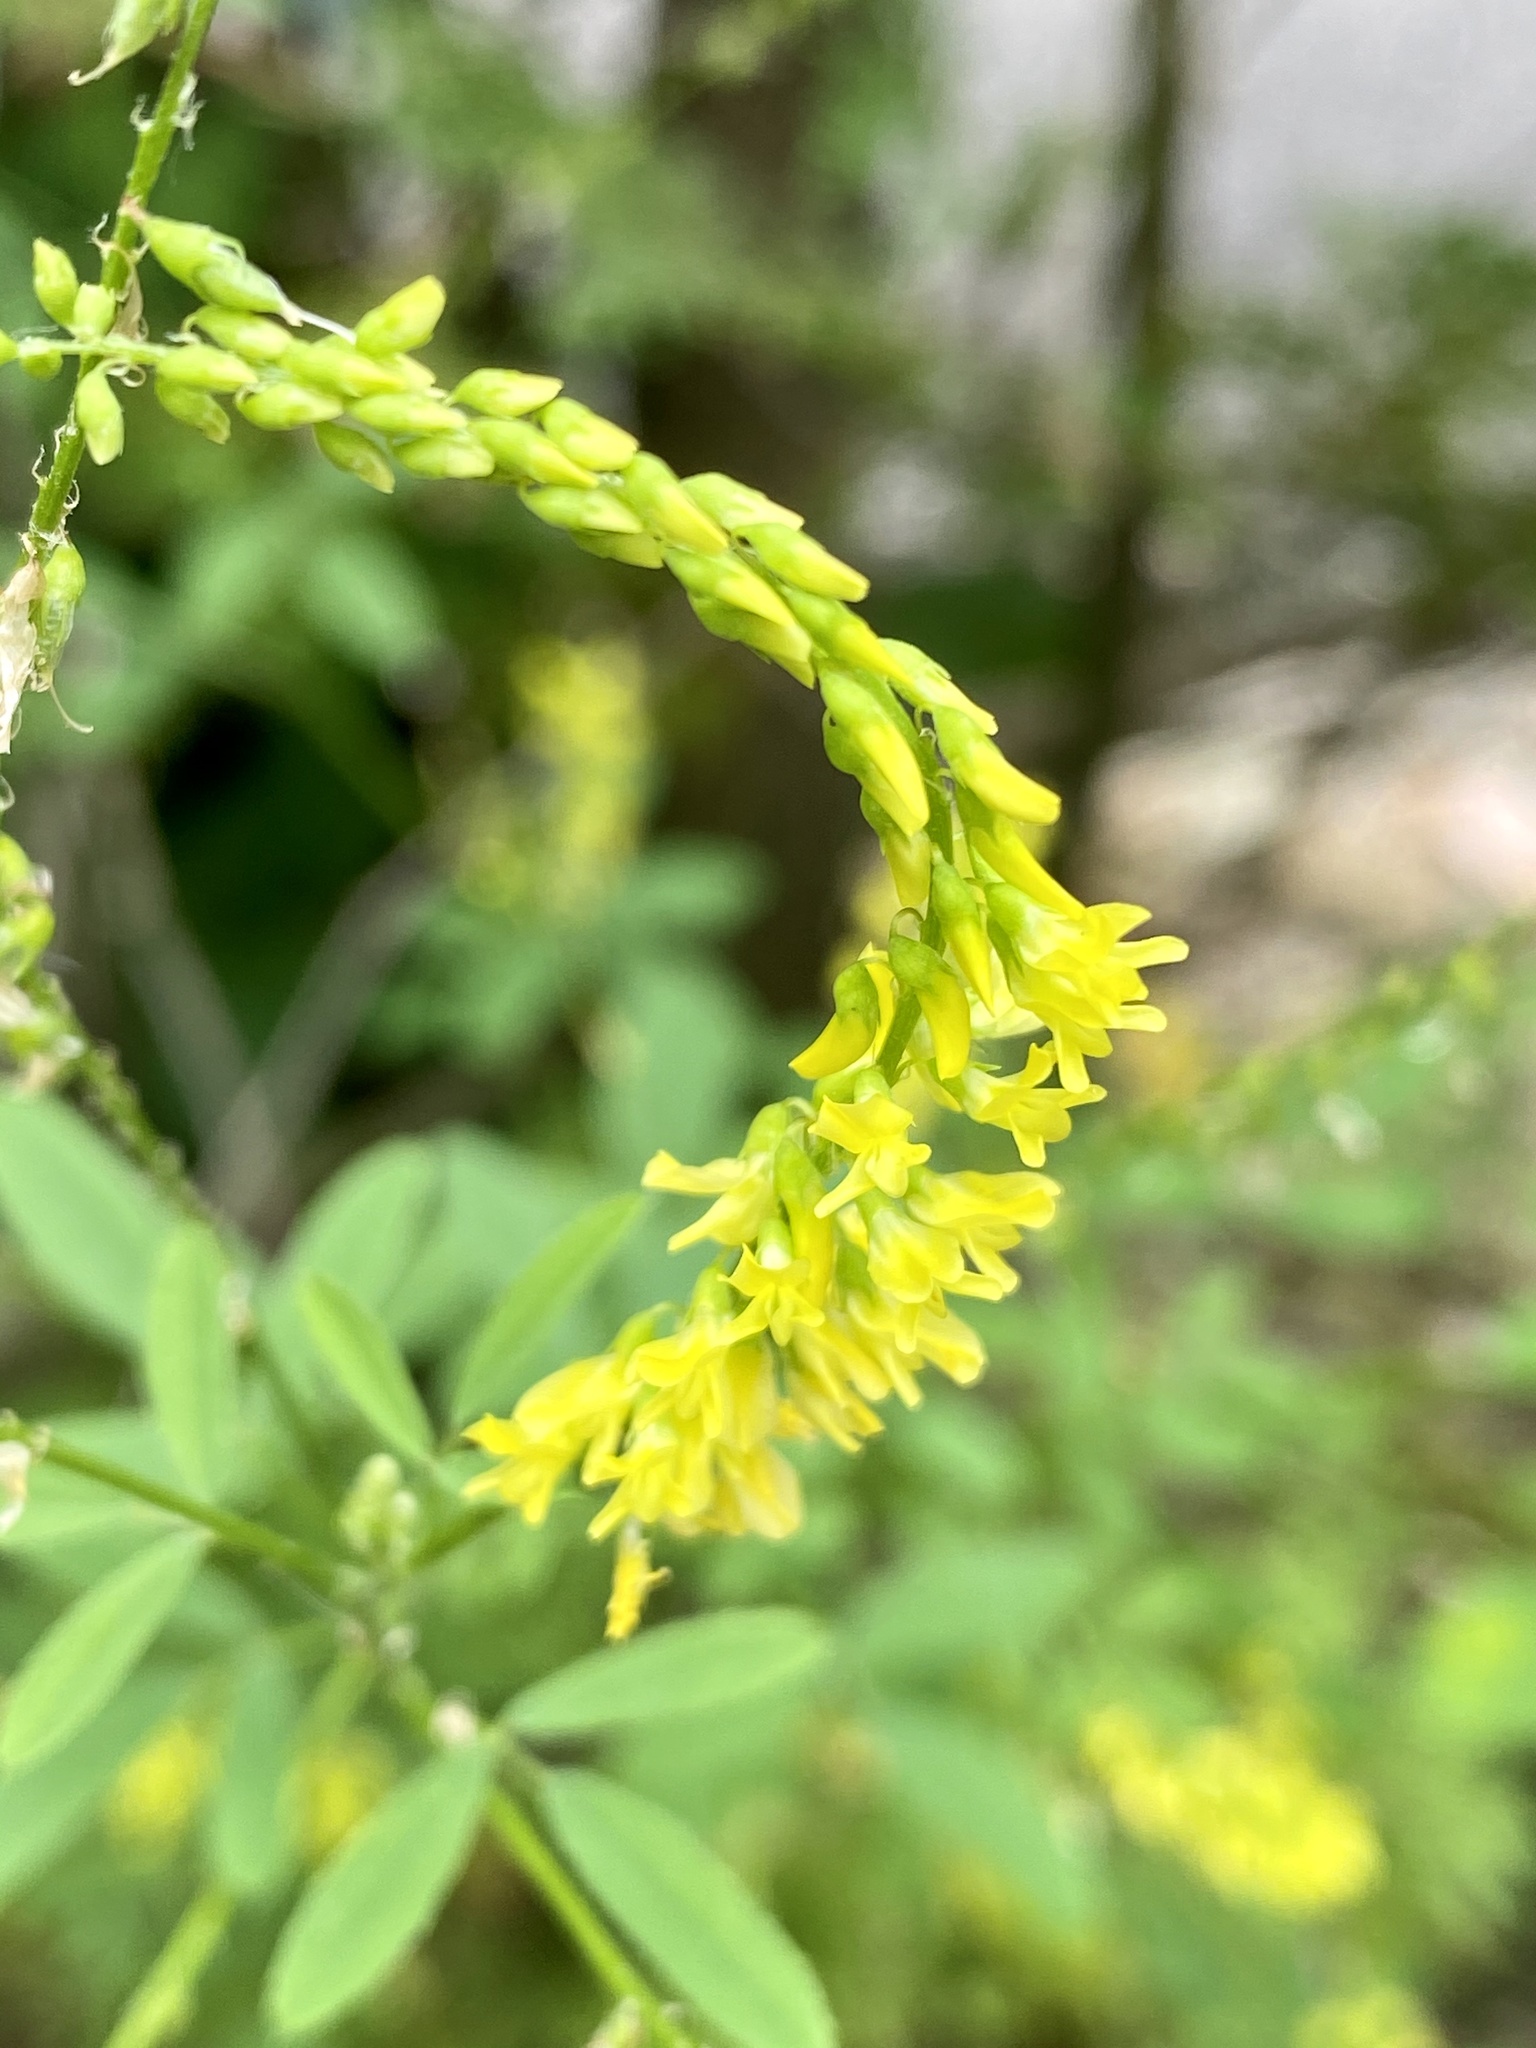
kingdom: Plantae
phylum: Tracheophyta
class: Magnoliopsida
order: Fabales
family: Fabaceae
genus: Melilotus
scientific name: Melilotus officinalis
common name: Sweetclover
